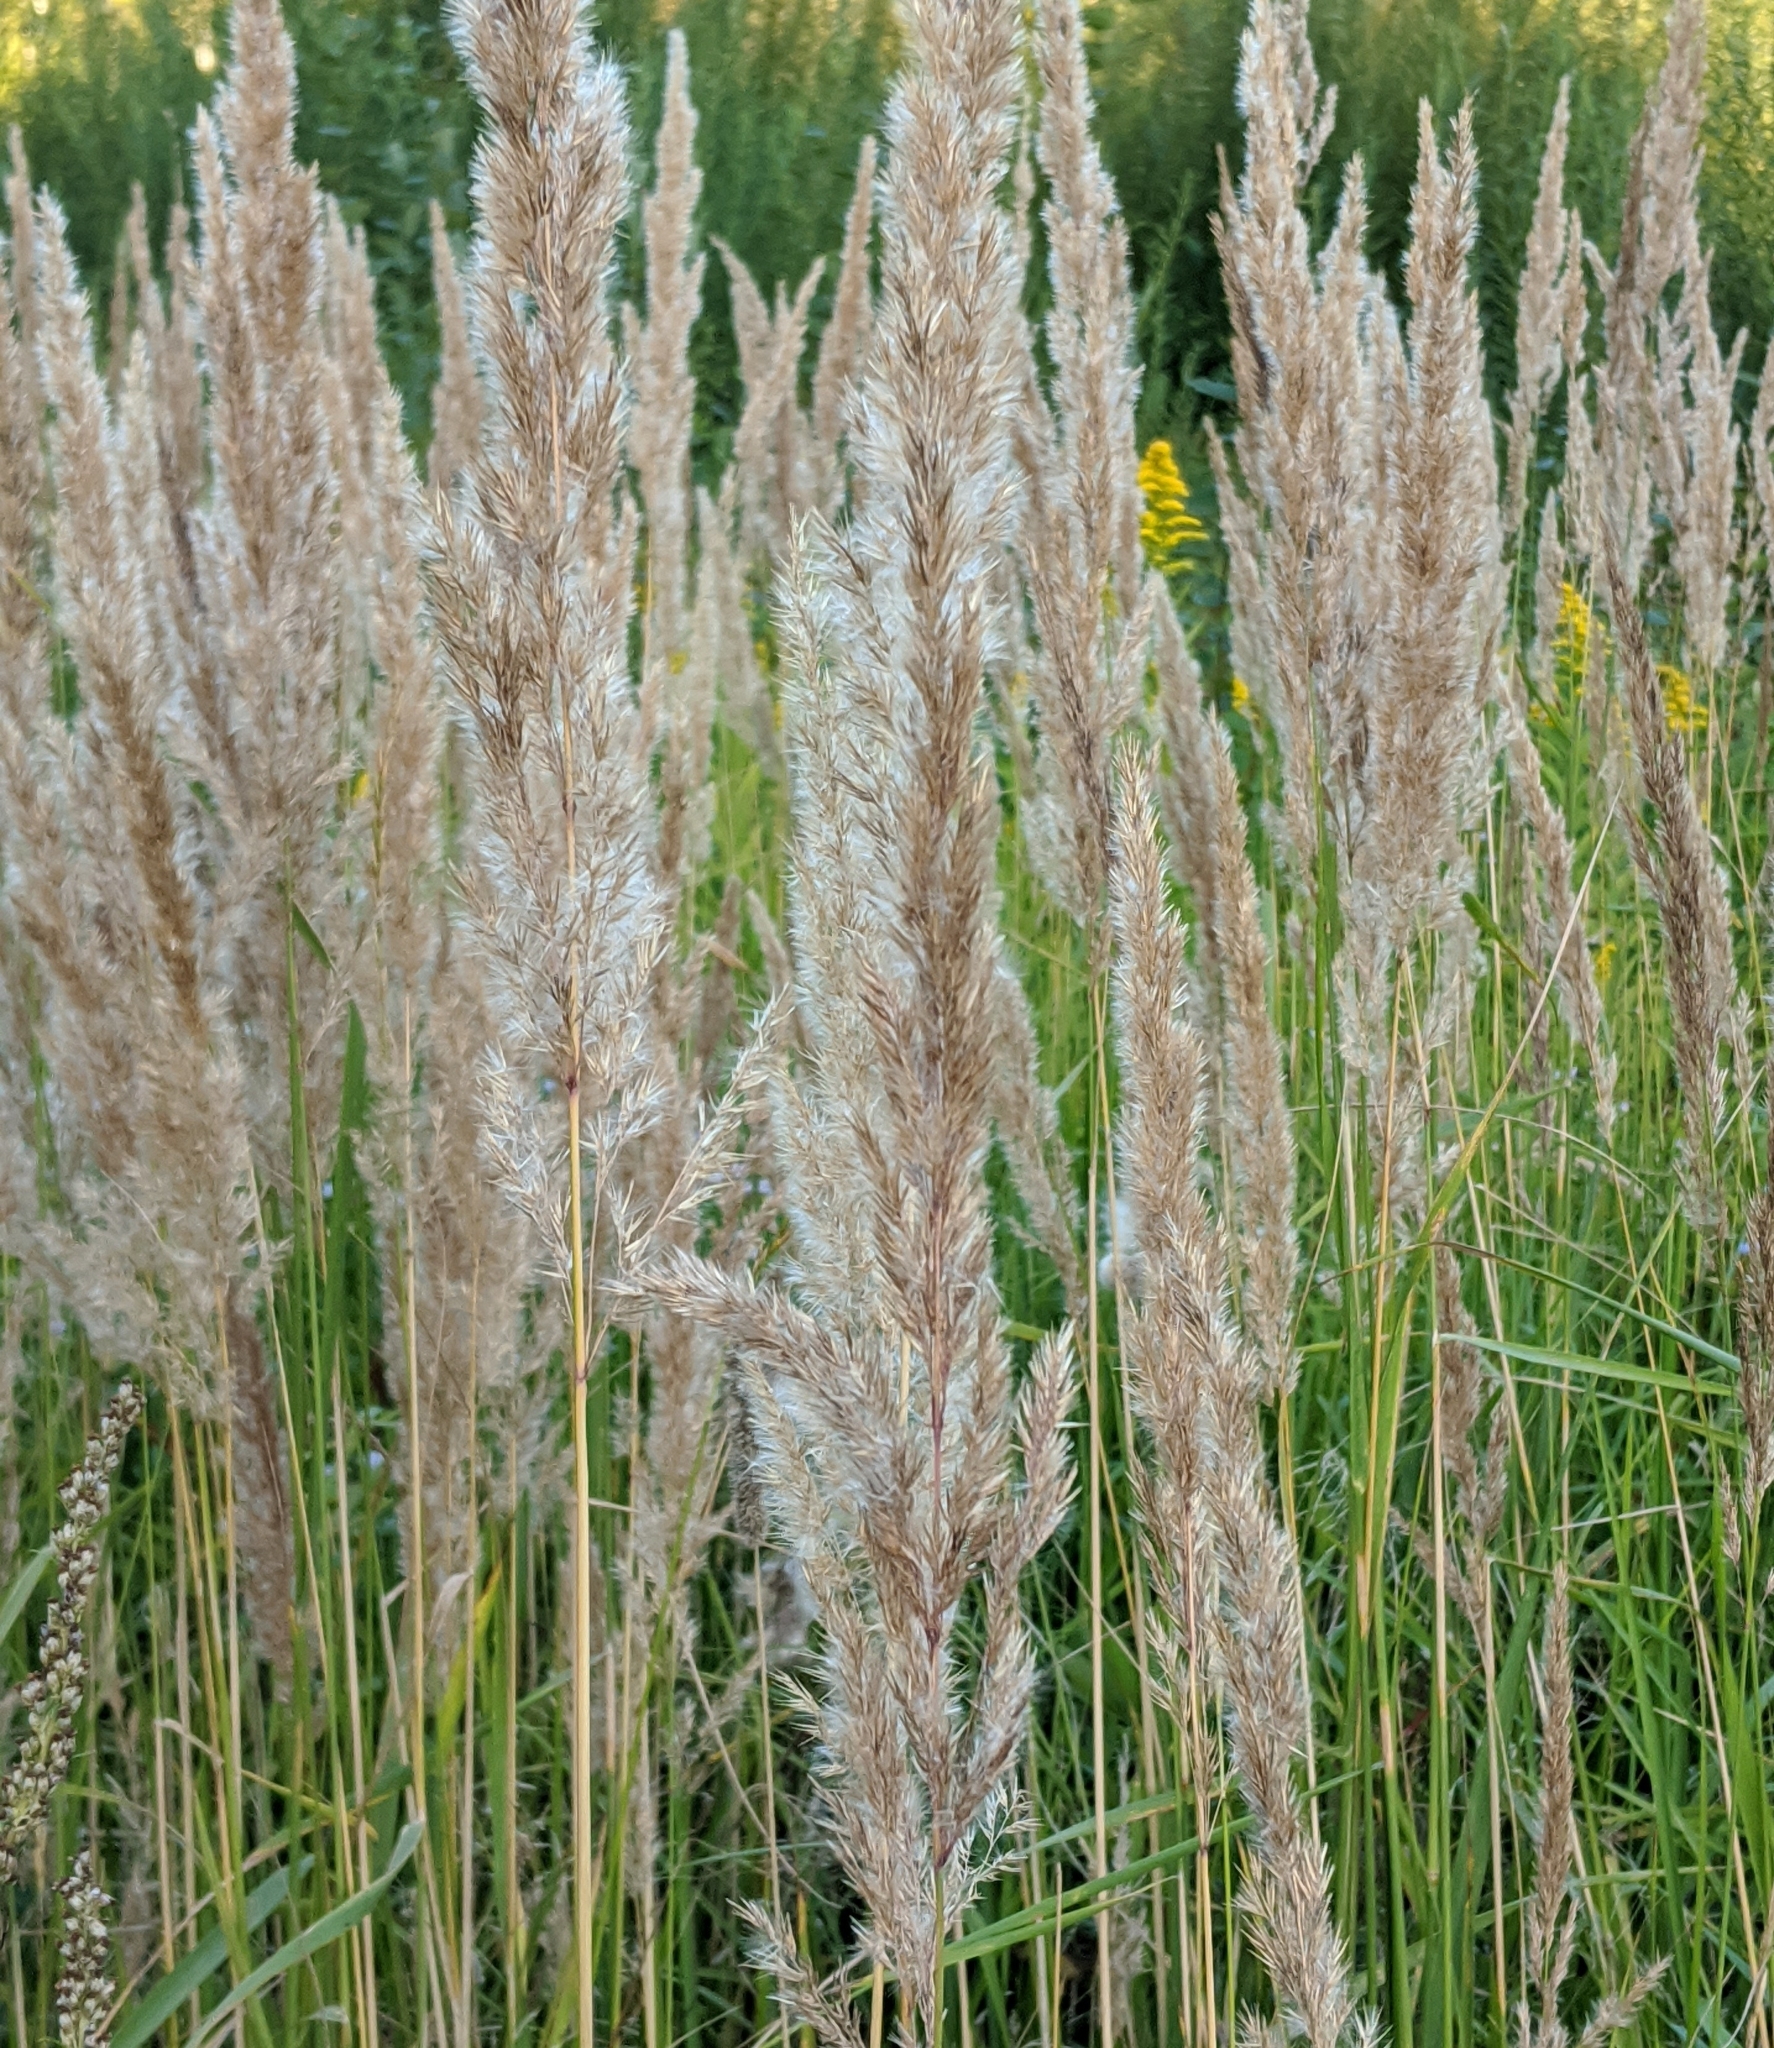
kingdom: Plantae
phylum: Tracheophyta
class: Liliopsida
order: Poales
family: Poaceae
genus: Calamagrostis
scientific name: Calamagrostis epigejos
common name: Wood small-reed
